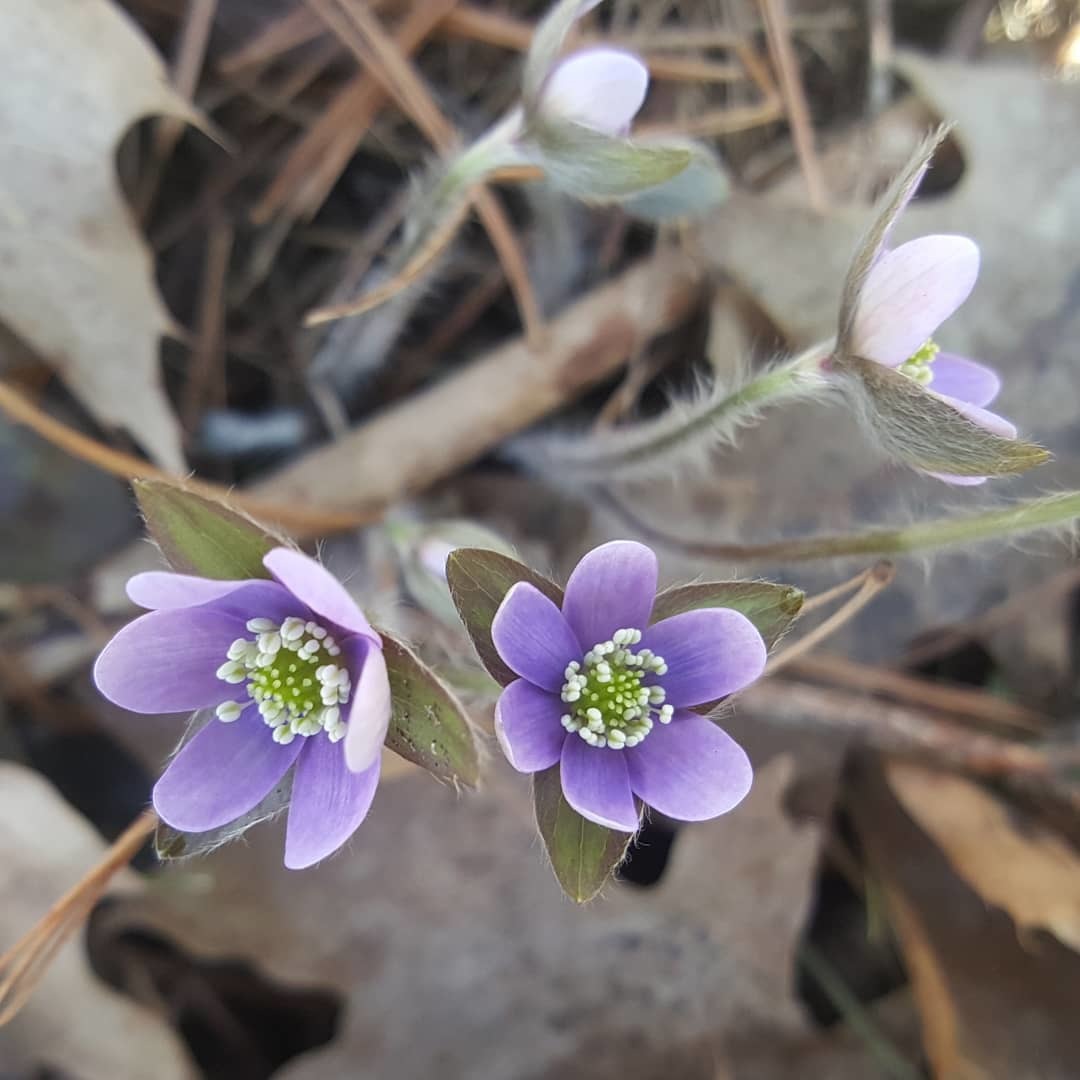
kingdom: Plantae
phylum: Tracheophyta
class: Magnoliopsida
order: Ranunculales
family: Ranunculaceae
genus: Hepatica
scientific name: Hepatica acutiloba
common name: Sharp-lobed hepatica
